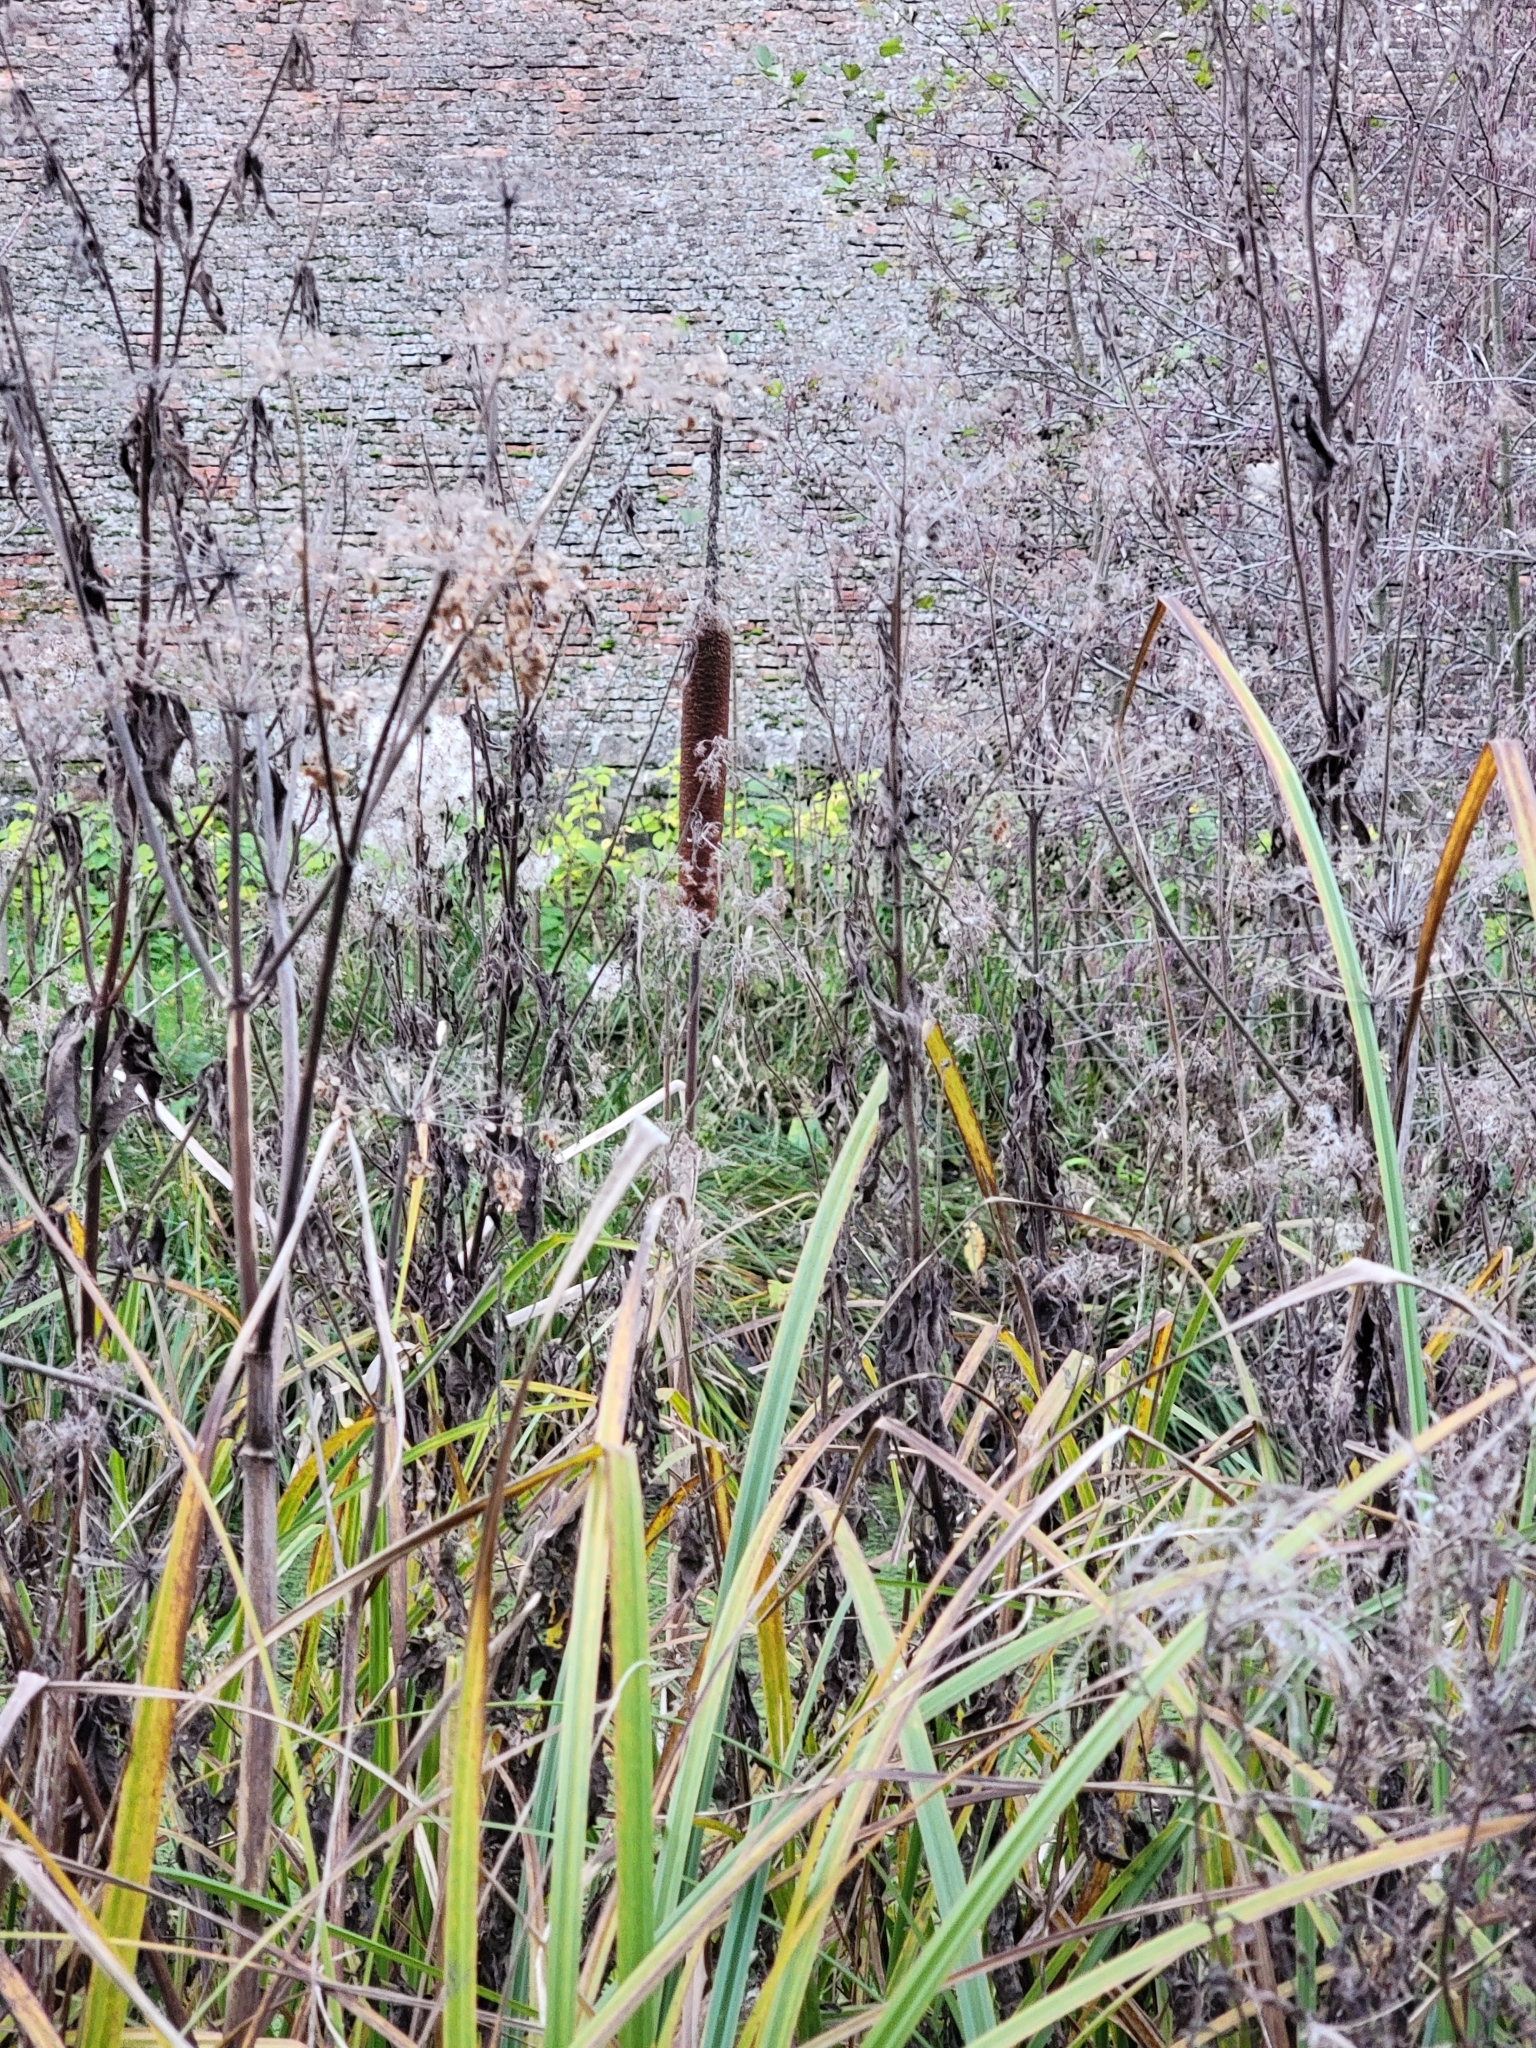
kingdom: Plantae
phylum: Tracheophyta
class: Liliopsida
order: Poales
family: Typhaceae
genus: Typha
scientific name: Typha latifolia
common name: Broadleaf cattail
